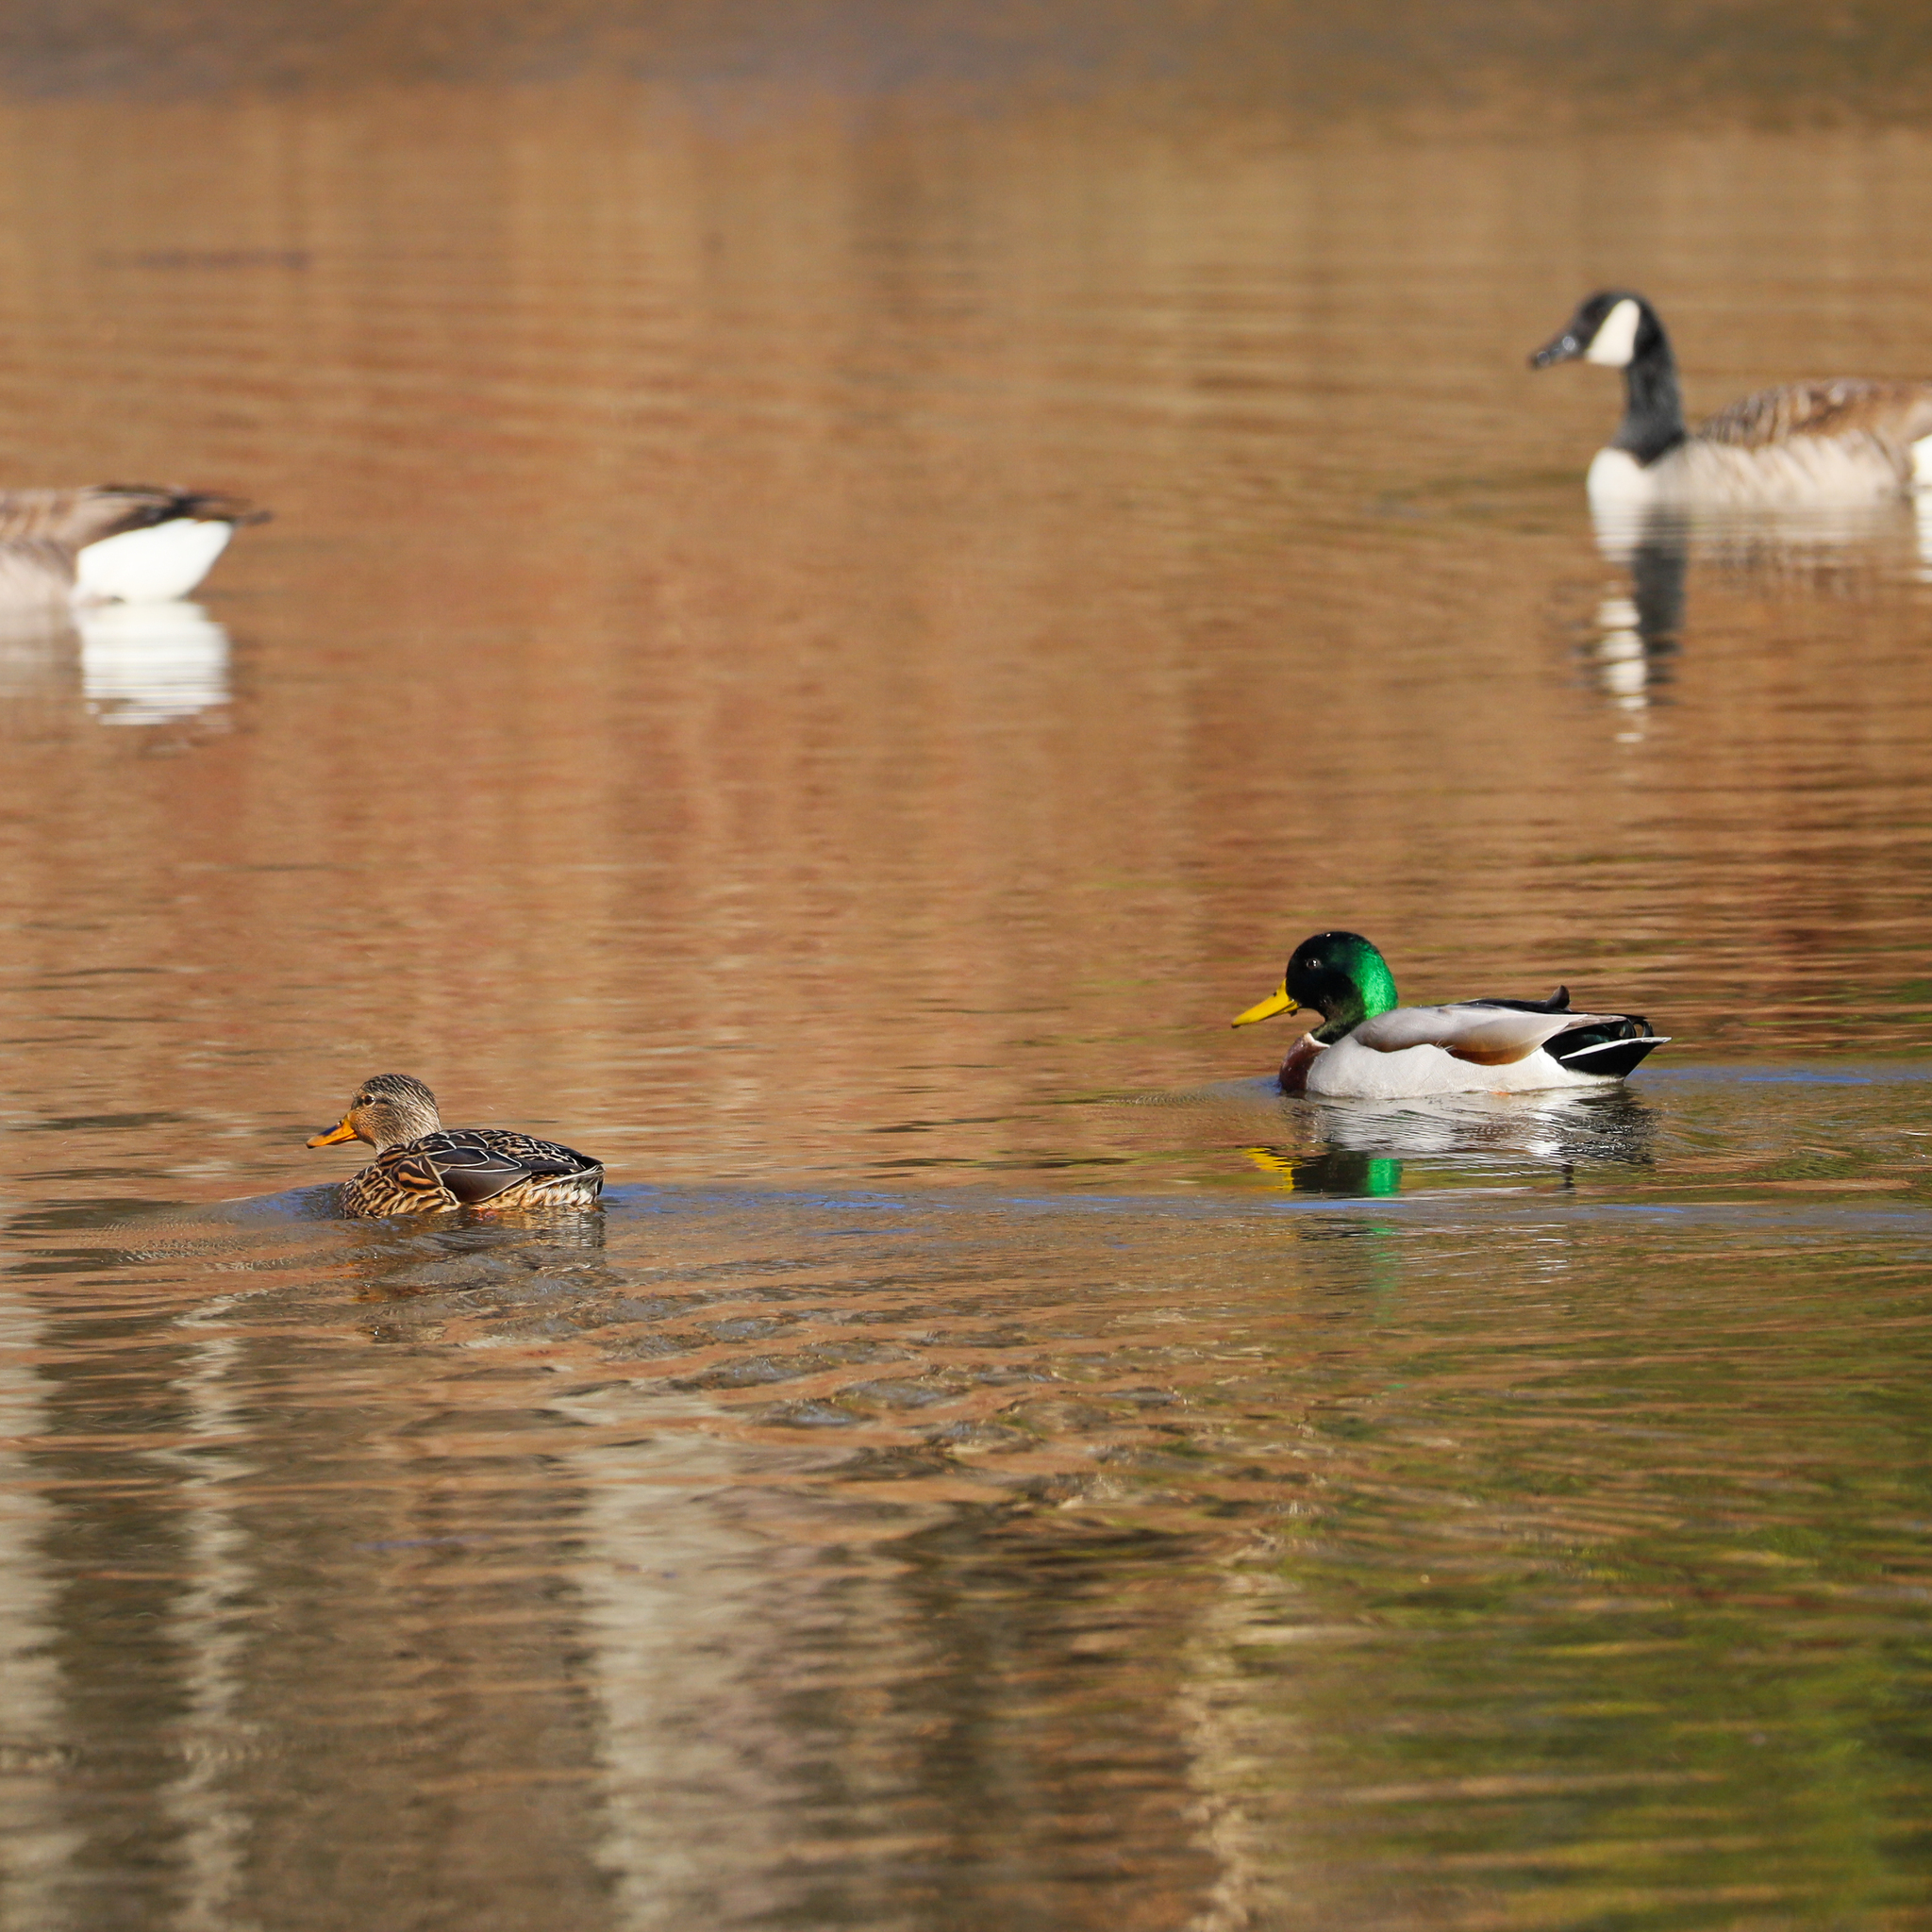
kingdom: Animalia
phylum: Chordata
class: Aves
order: Anseriformes
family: Anatidae
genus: Anas
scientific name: Anas platyrhynchos
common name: Mallard
